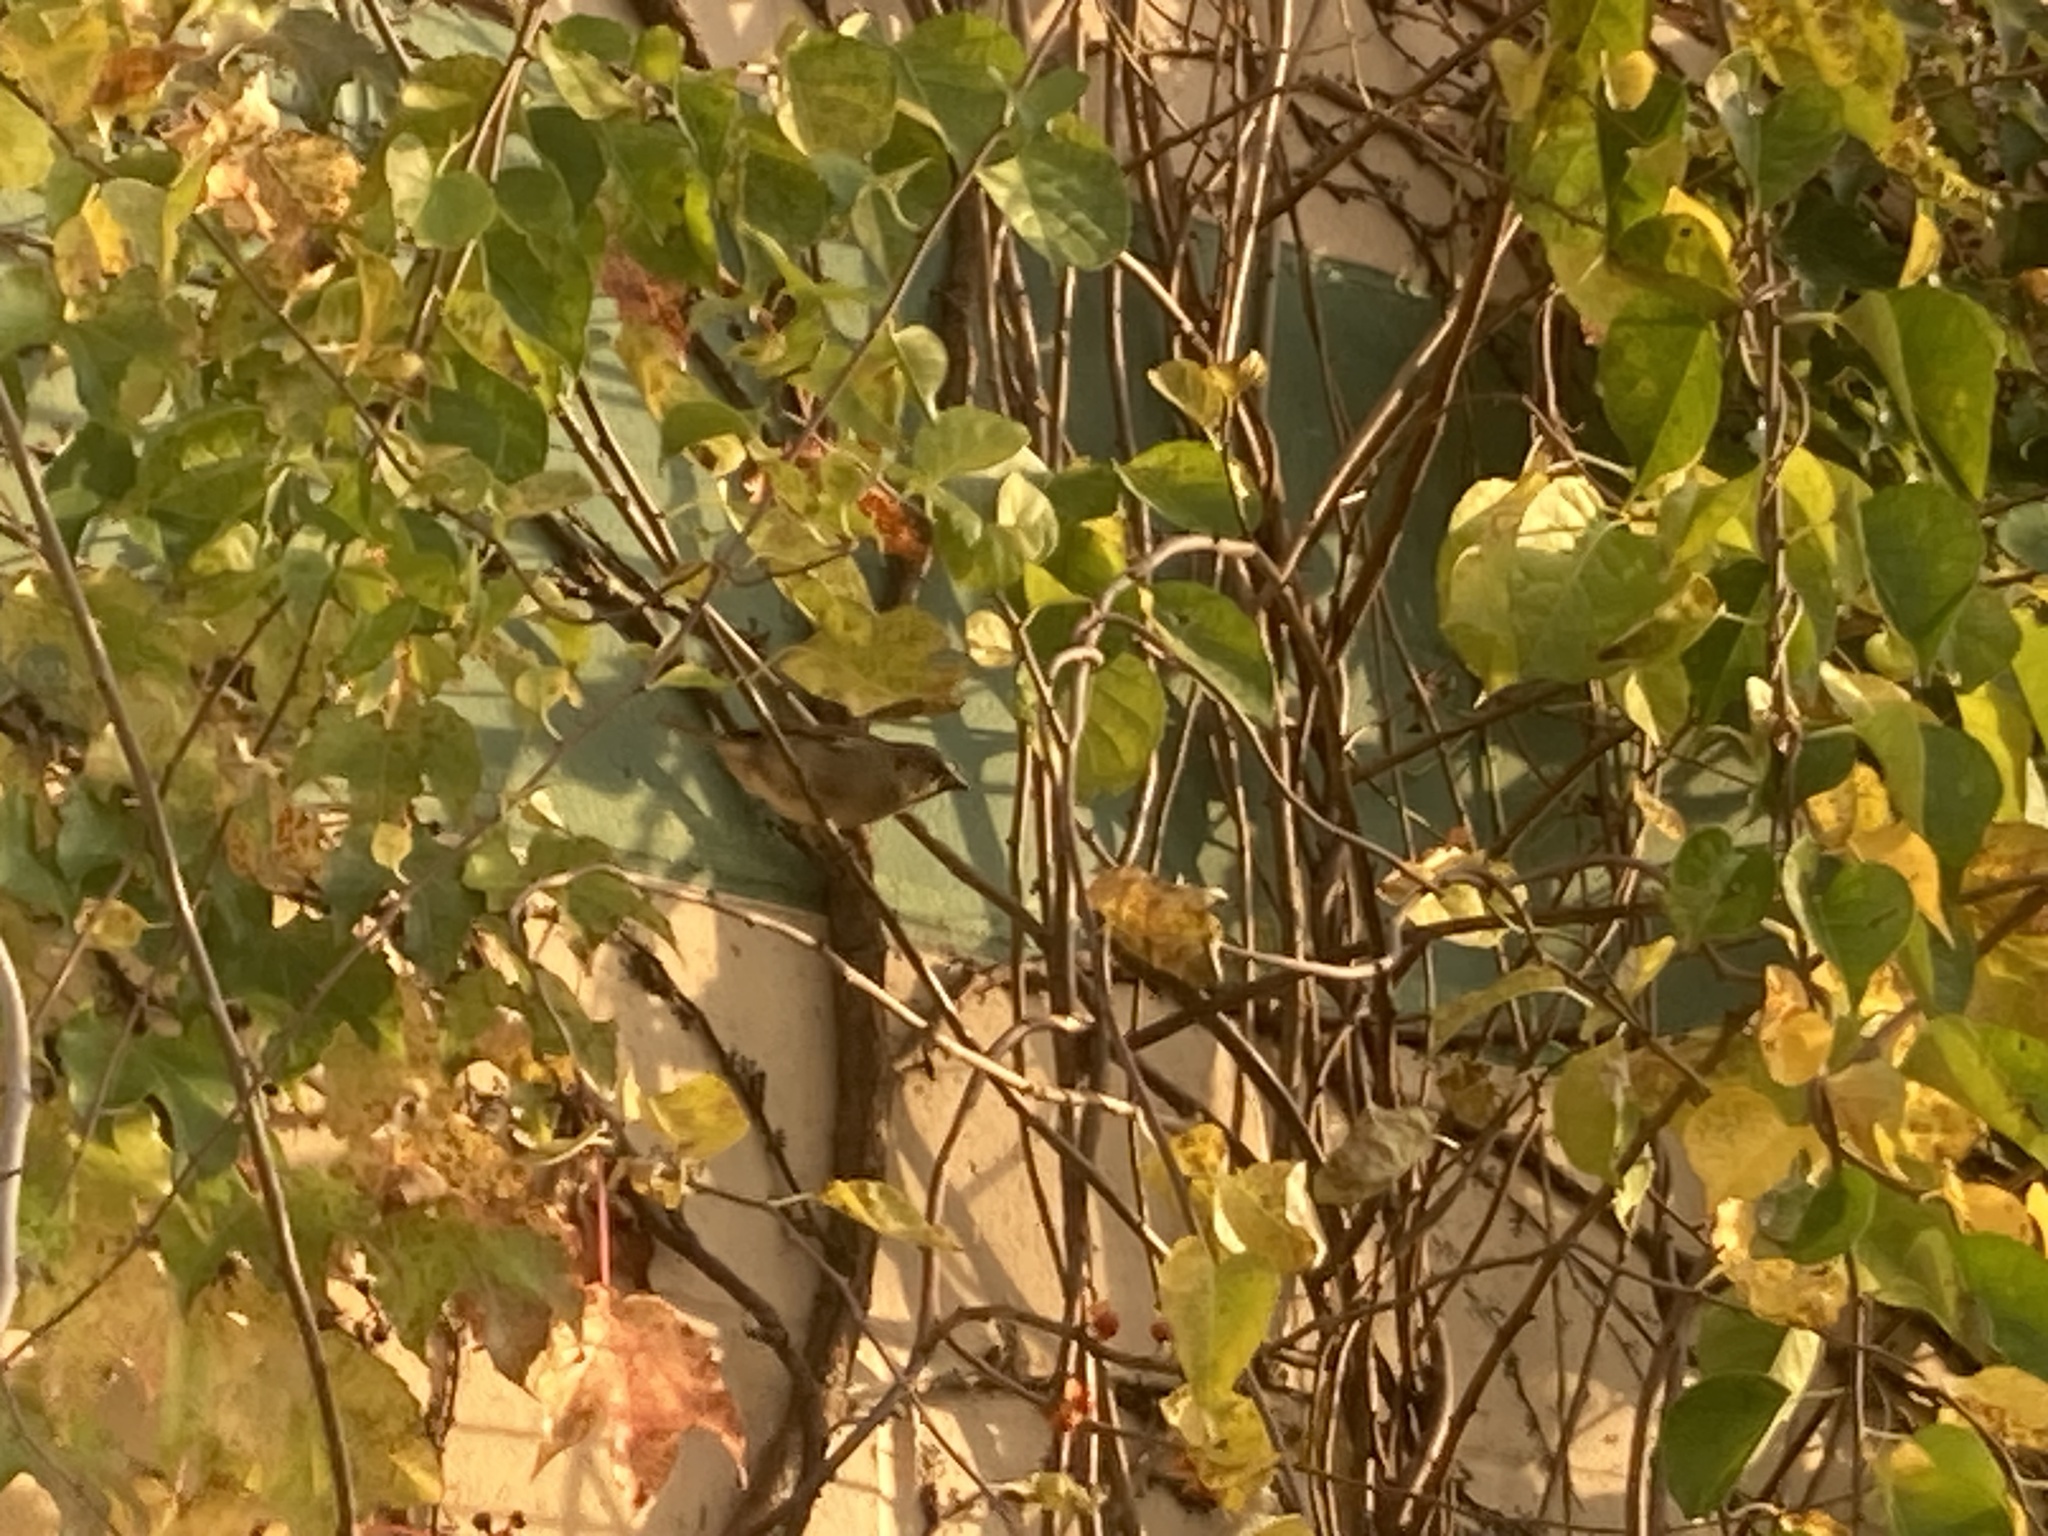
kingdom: Animalia
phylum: Chordata
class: Aves
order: Passeriformes
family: Passeridae
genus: Passer
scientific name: Passer domesticus
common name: House sparrow
